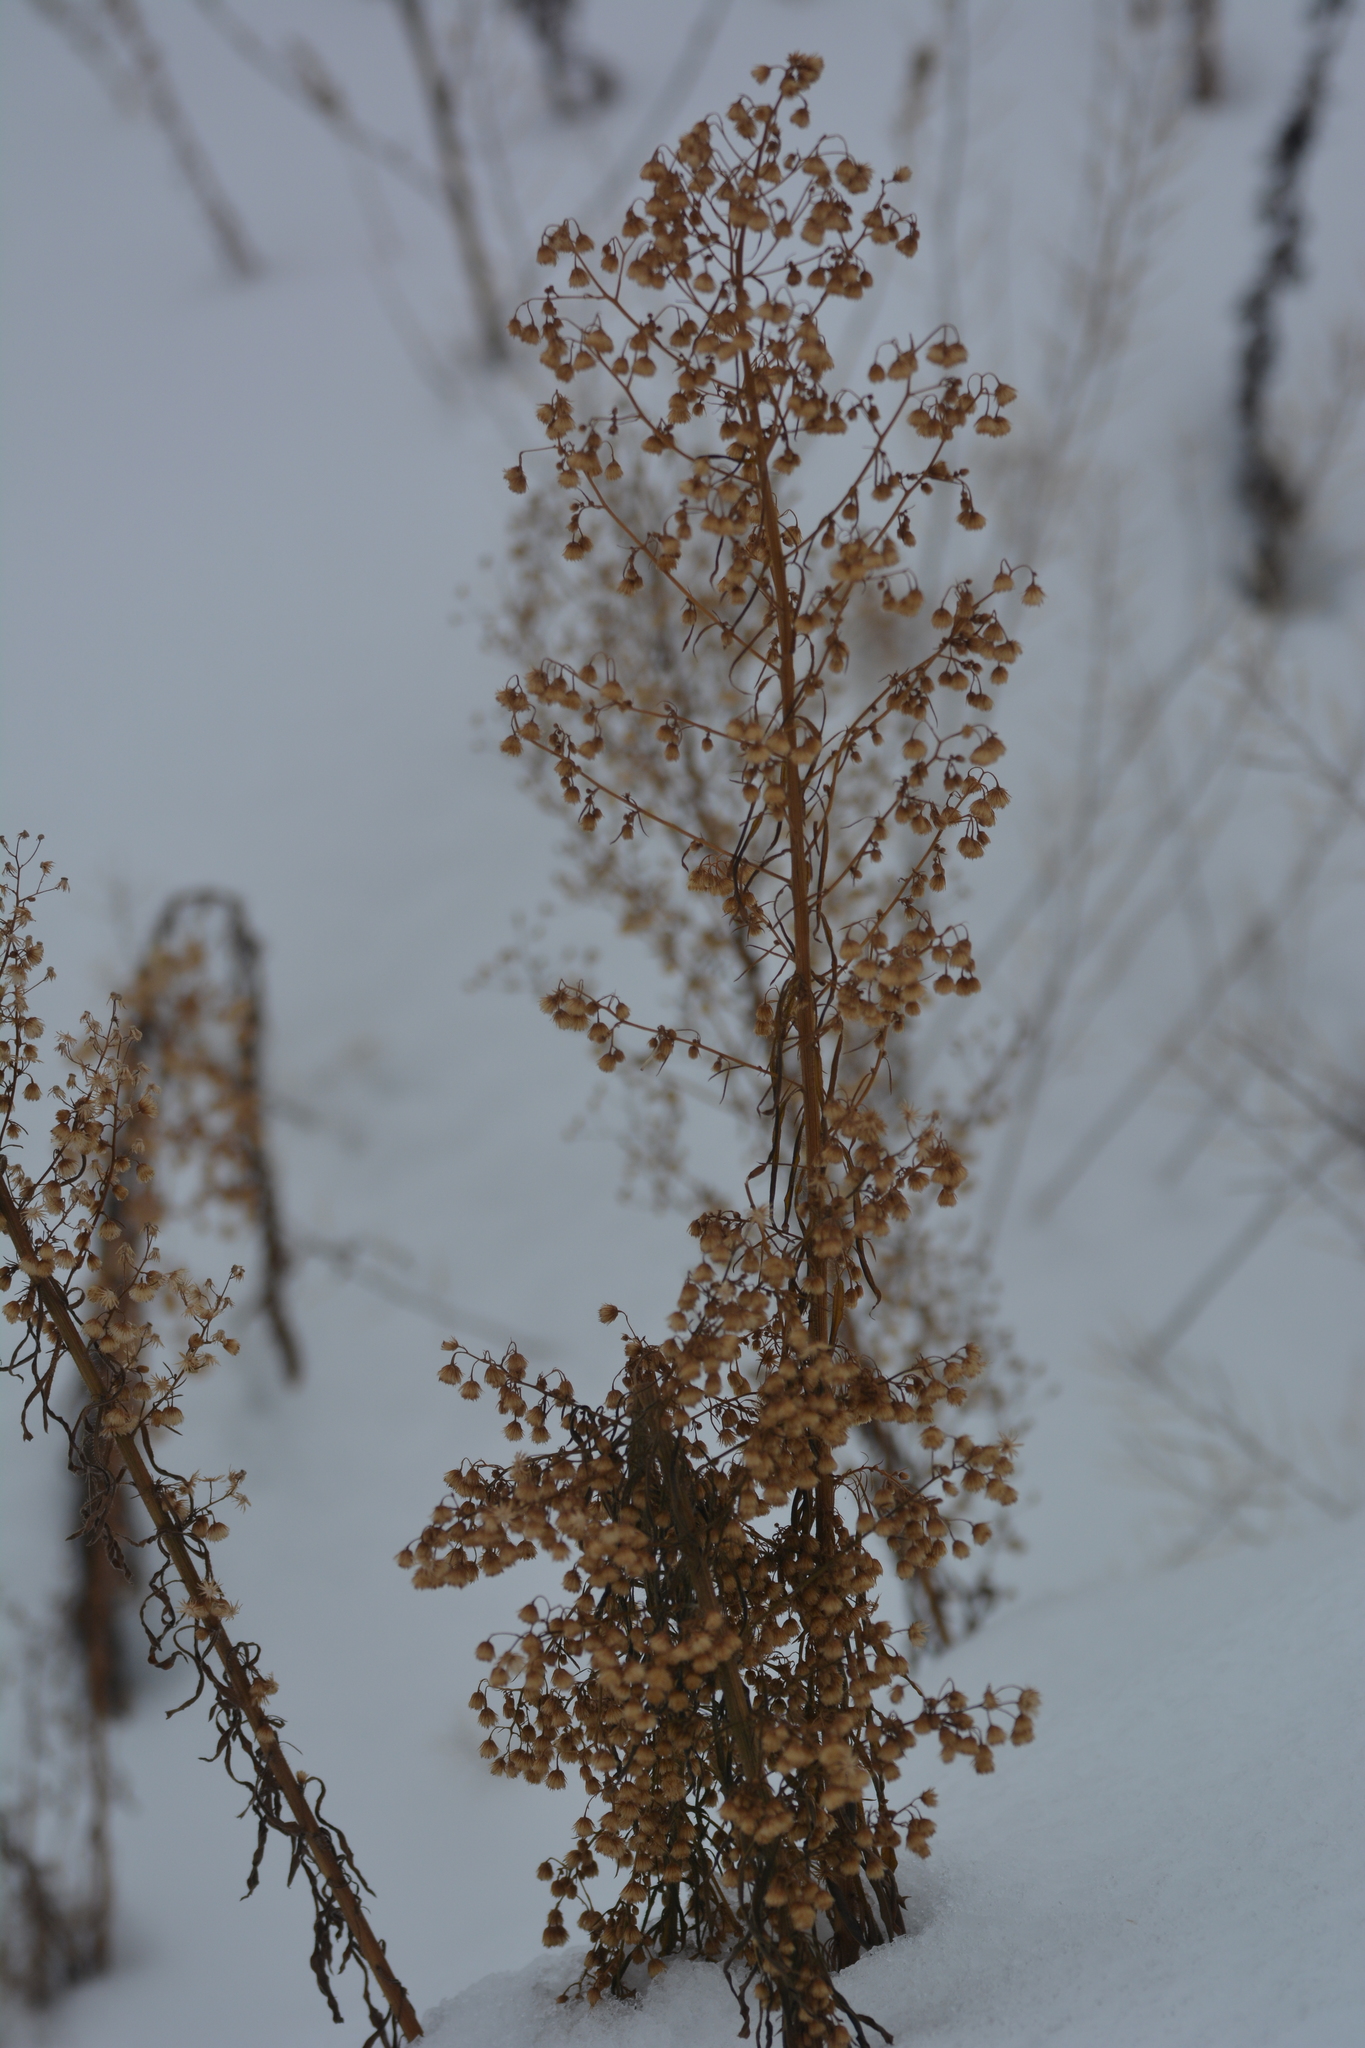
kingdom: Plantae
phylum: Tracheophyta
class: Magnoliopsida
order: Asterales
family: Asteraceae
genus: Erigeron
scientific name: Erigeron canadensis
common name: Canadian fleabane
